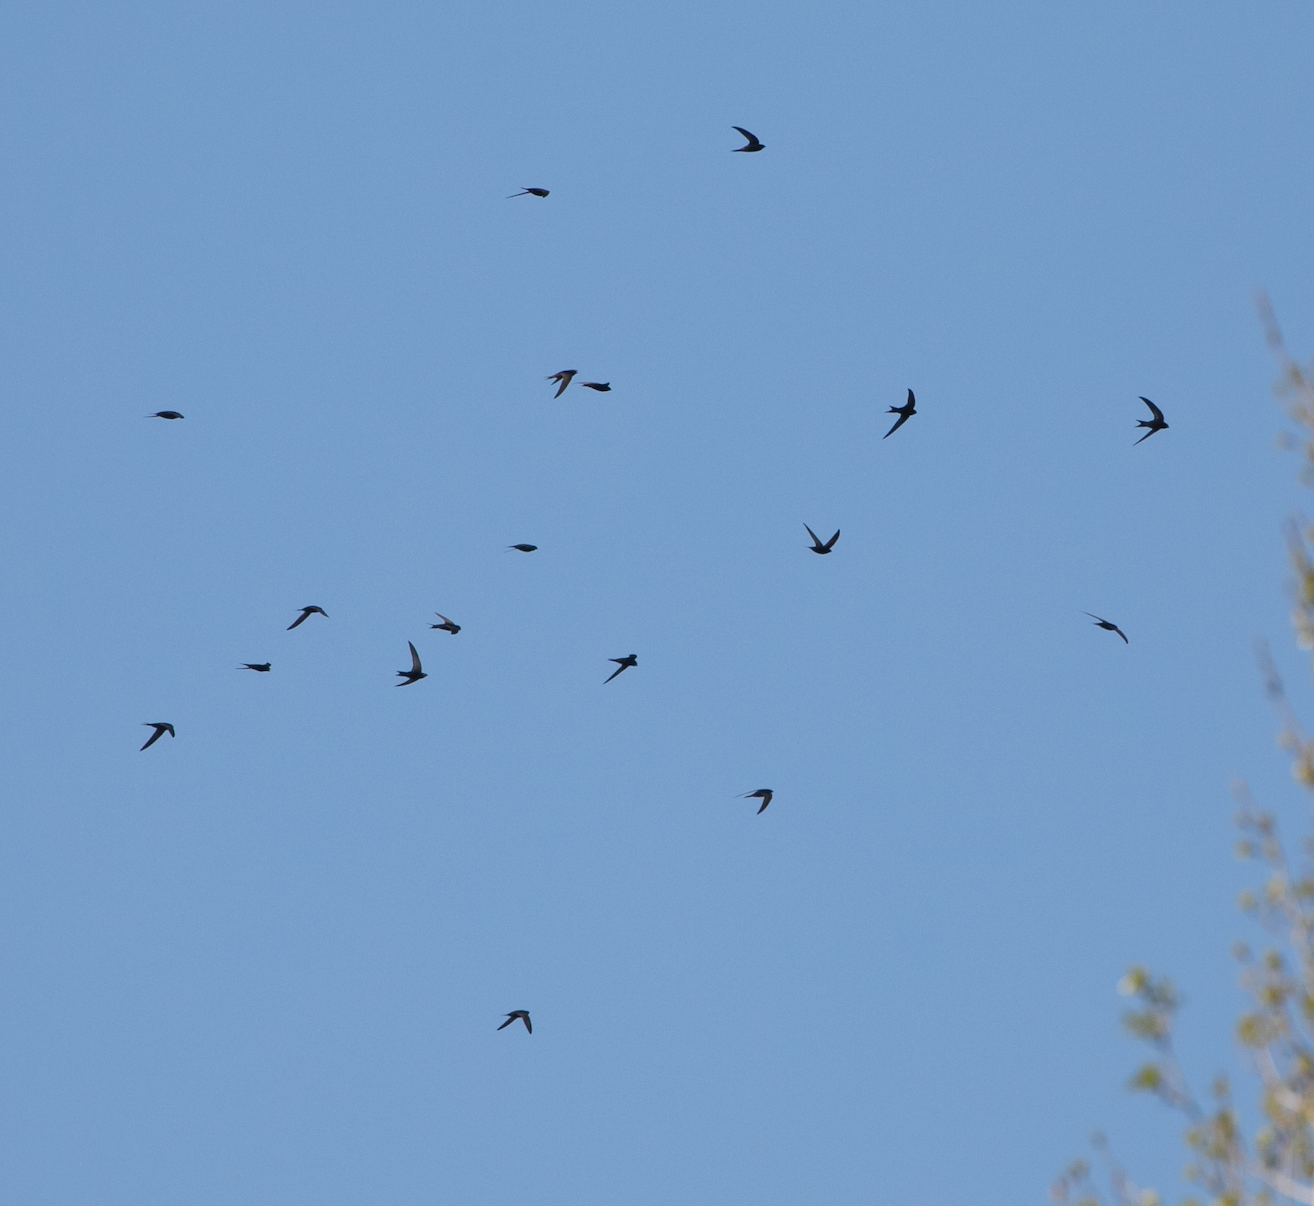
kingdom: Animalia
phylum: Chordata
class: Aves
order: Apodiformes
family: Apodidae
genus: Apus
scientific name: Apus apus
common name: Common swift
